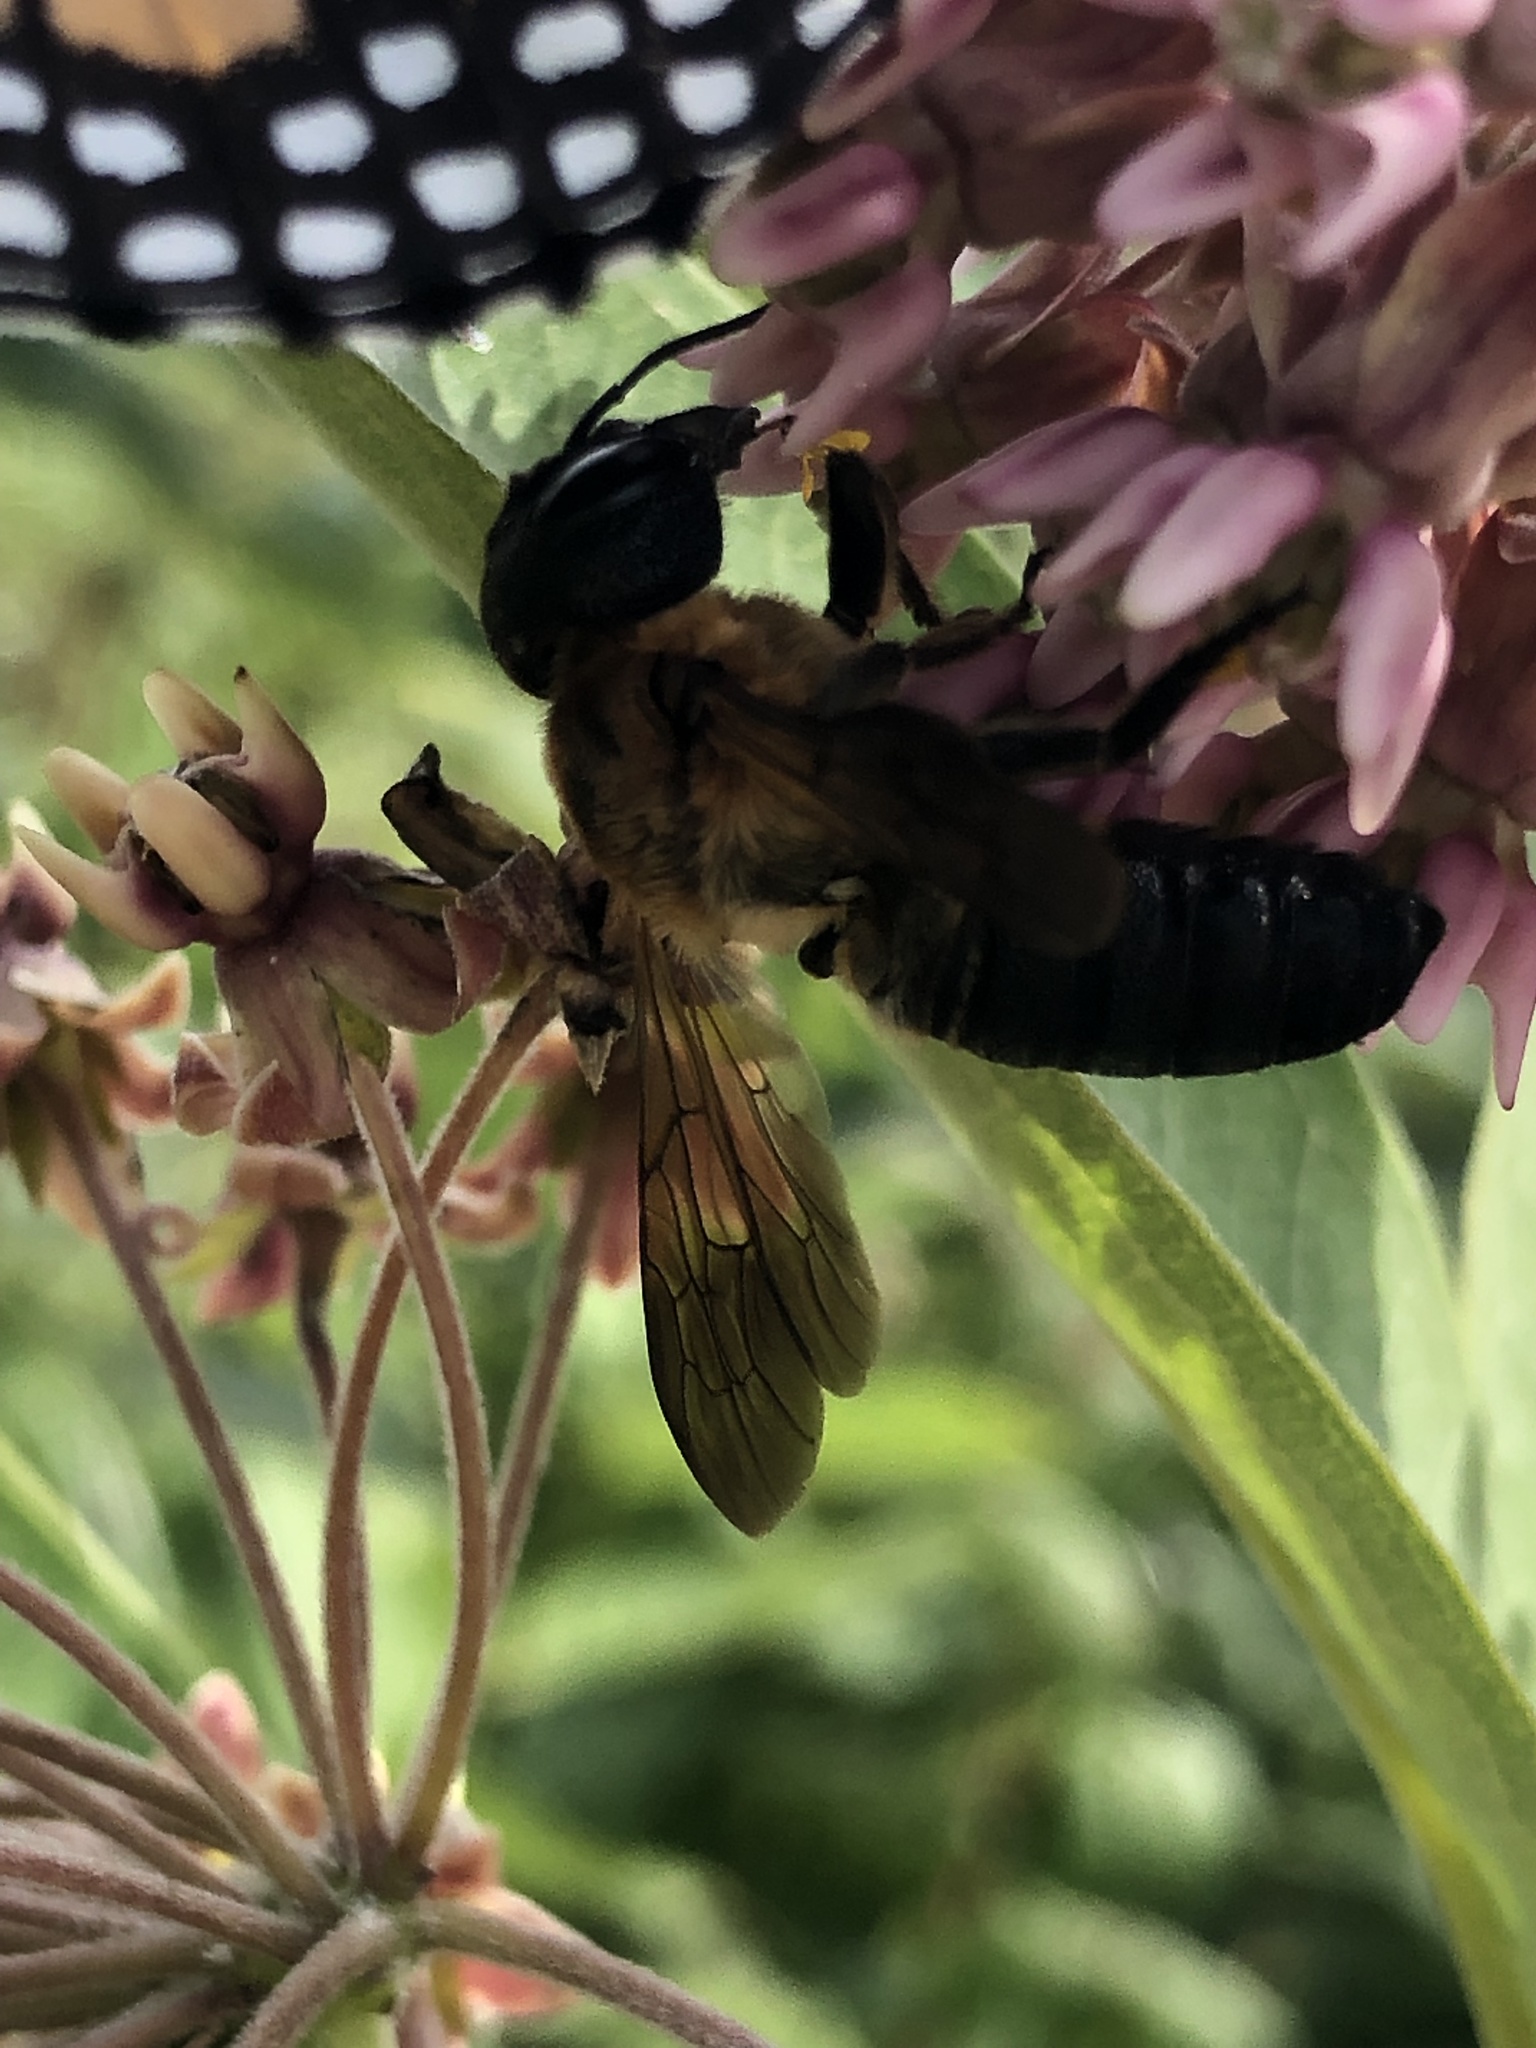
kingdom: Animalia
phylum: Arthropoda
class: Insecta
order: Hymenoptera
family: Megachilidae
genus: Megachile
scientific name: Megachile sculpturalis
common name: Sculptured resin bee
